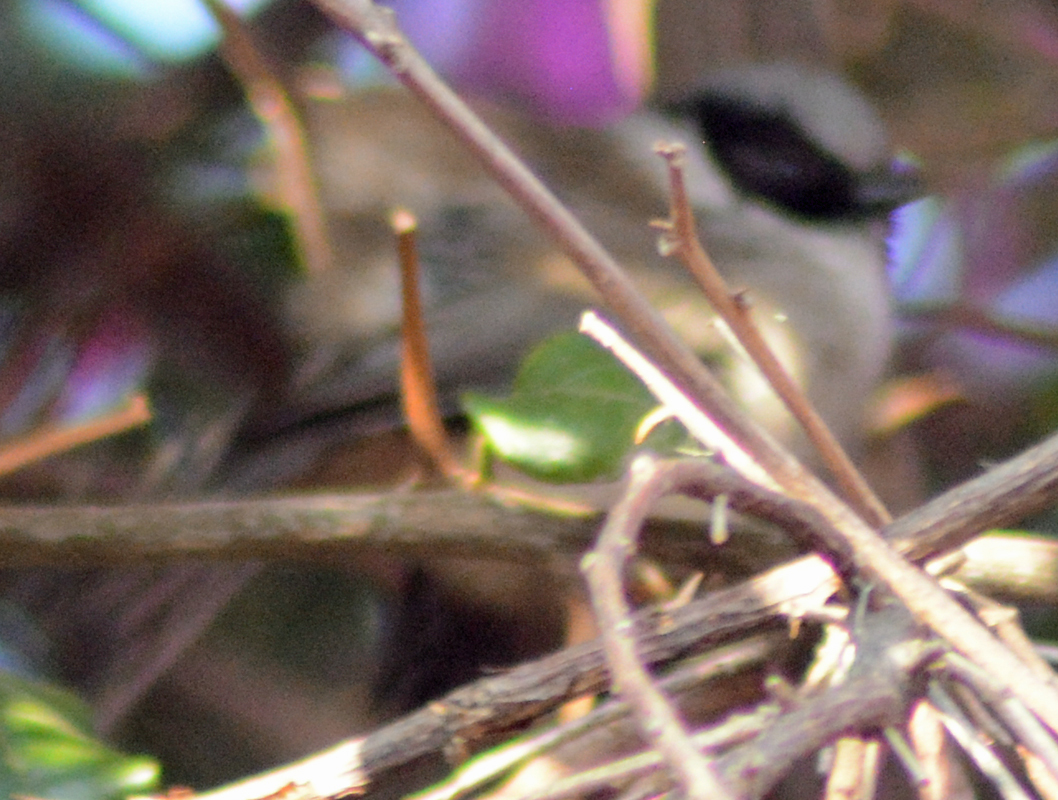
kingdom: Animalia
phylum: Chordata
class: Aves
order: Passeriformes
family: Aegithalidae
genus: Psaltriparus
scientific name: Psaltriparus minimus
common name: American bushtit
